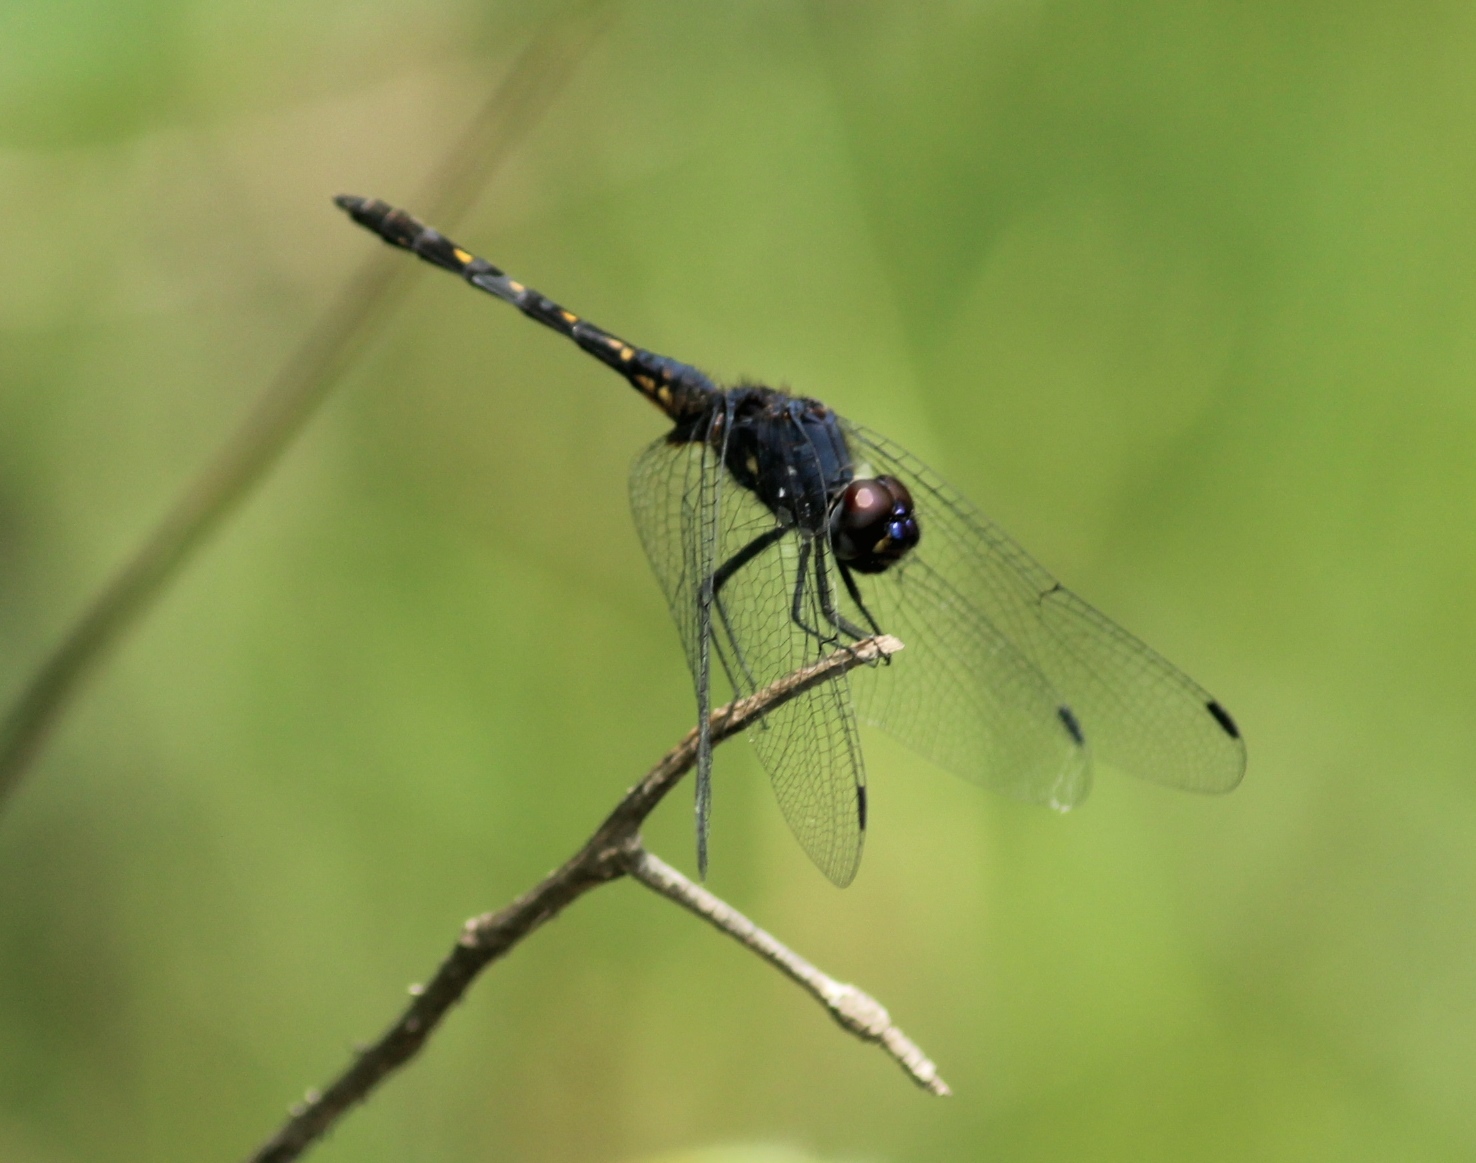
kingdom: Animalia
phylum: Arthropoda
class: Insecta
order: Odonata
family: Libellulidae
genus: Trithemis
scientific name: Trithemis festiva
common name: Indigo dropwing
